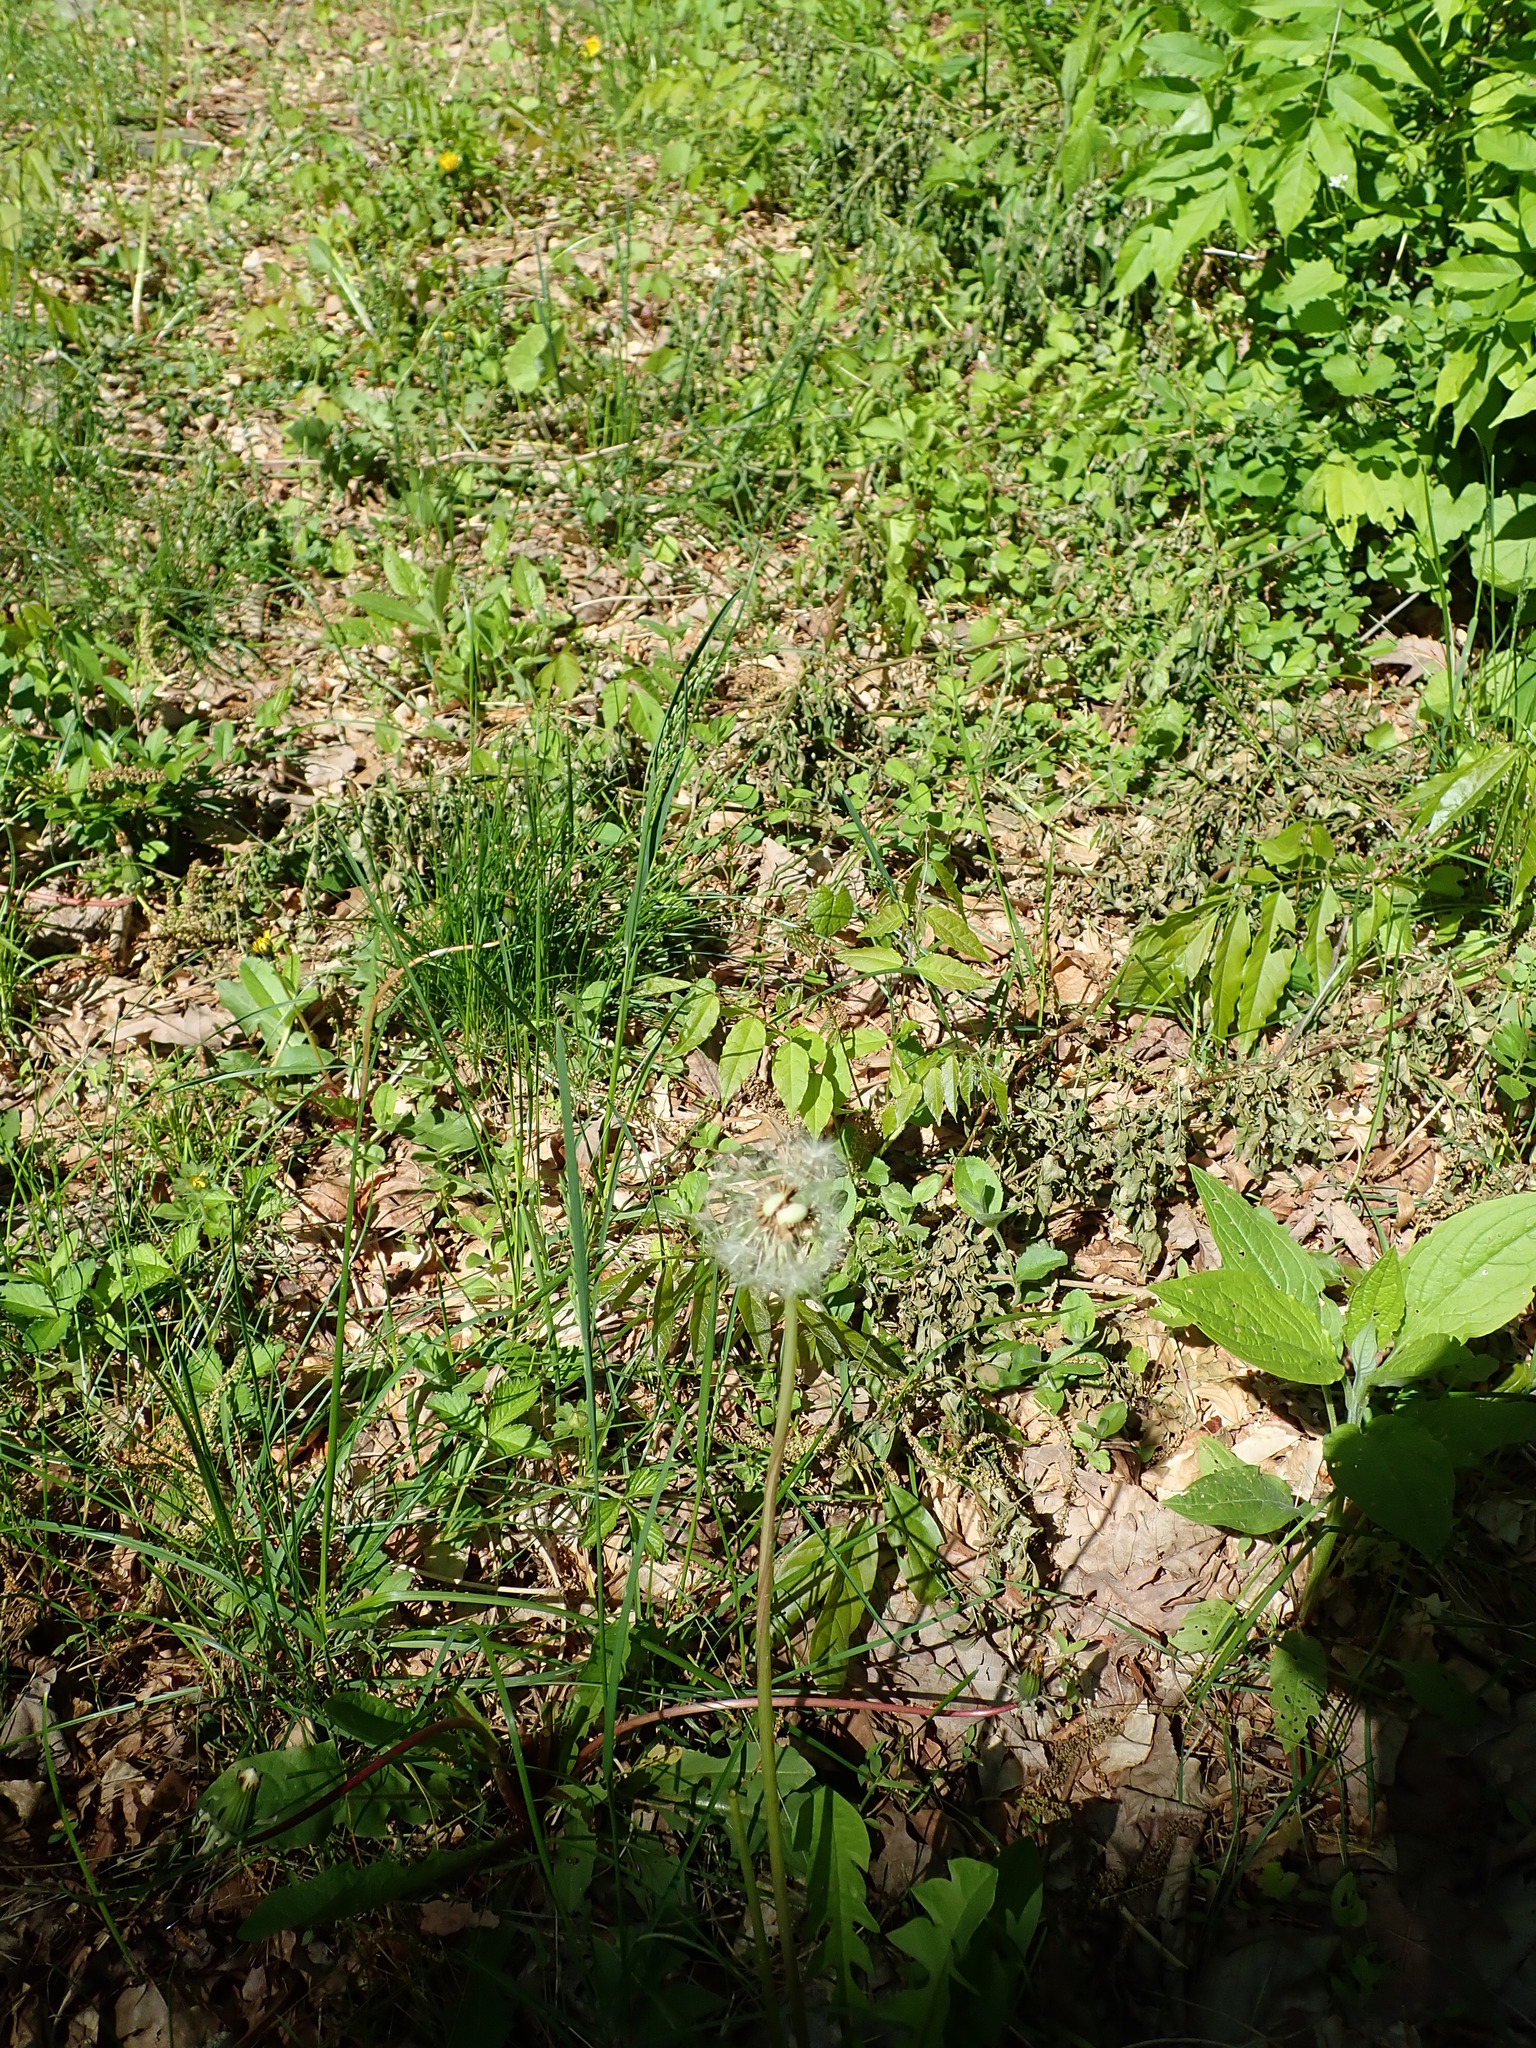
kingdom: Plantae
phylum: Tracheophyta
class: Magnoliopsida
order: Asterales
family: Asteraceae
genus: Taraxacum
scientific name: Taraxacum officinale
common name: Common dandelion
